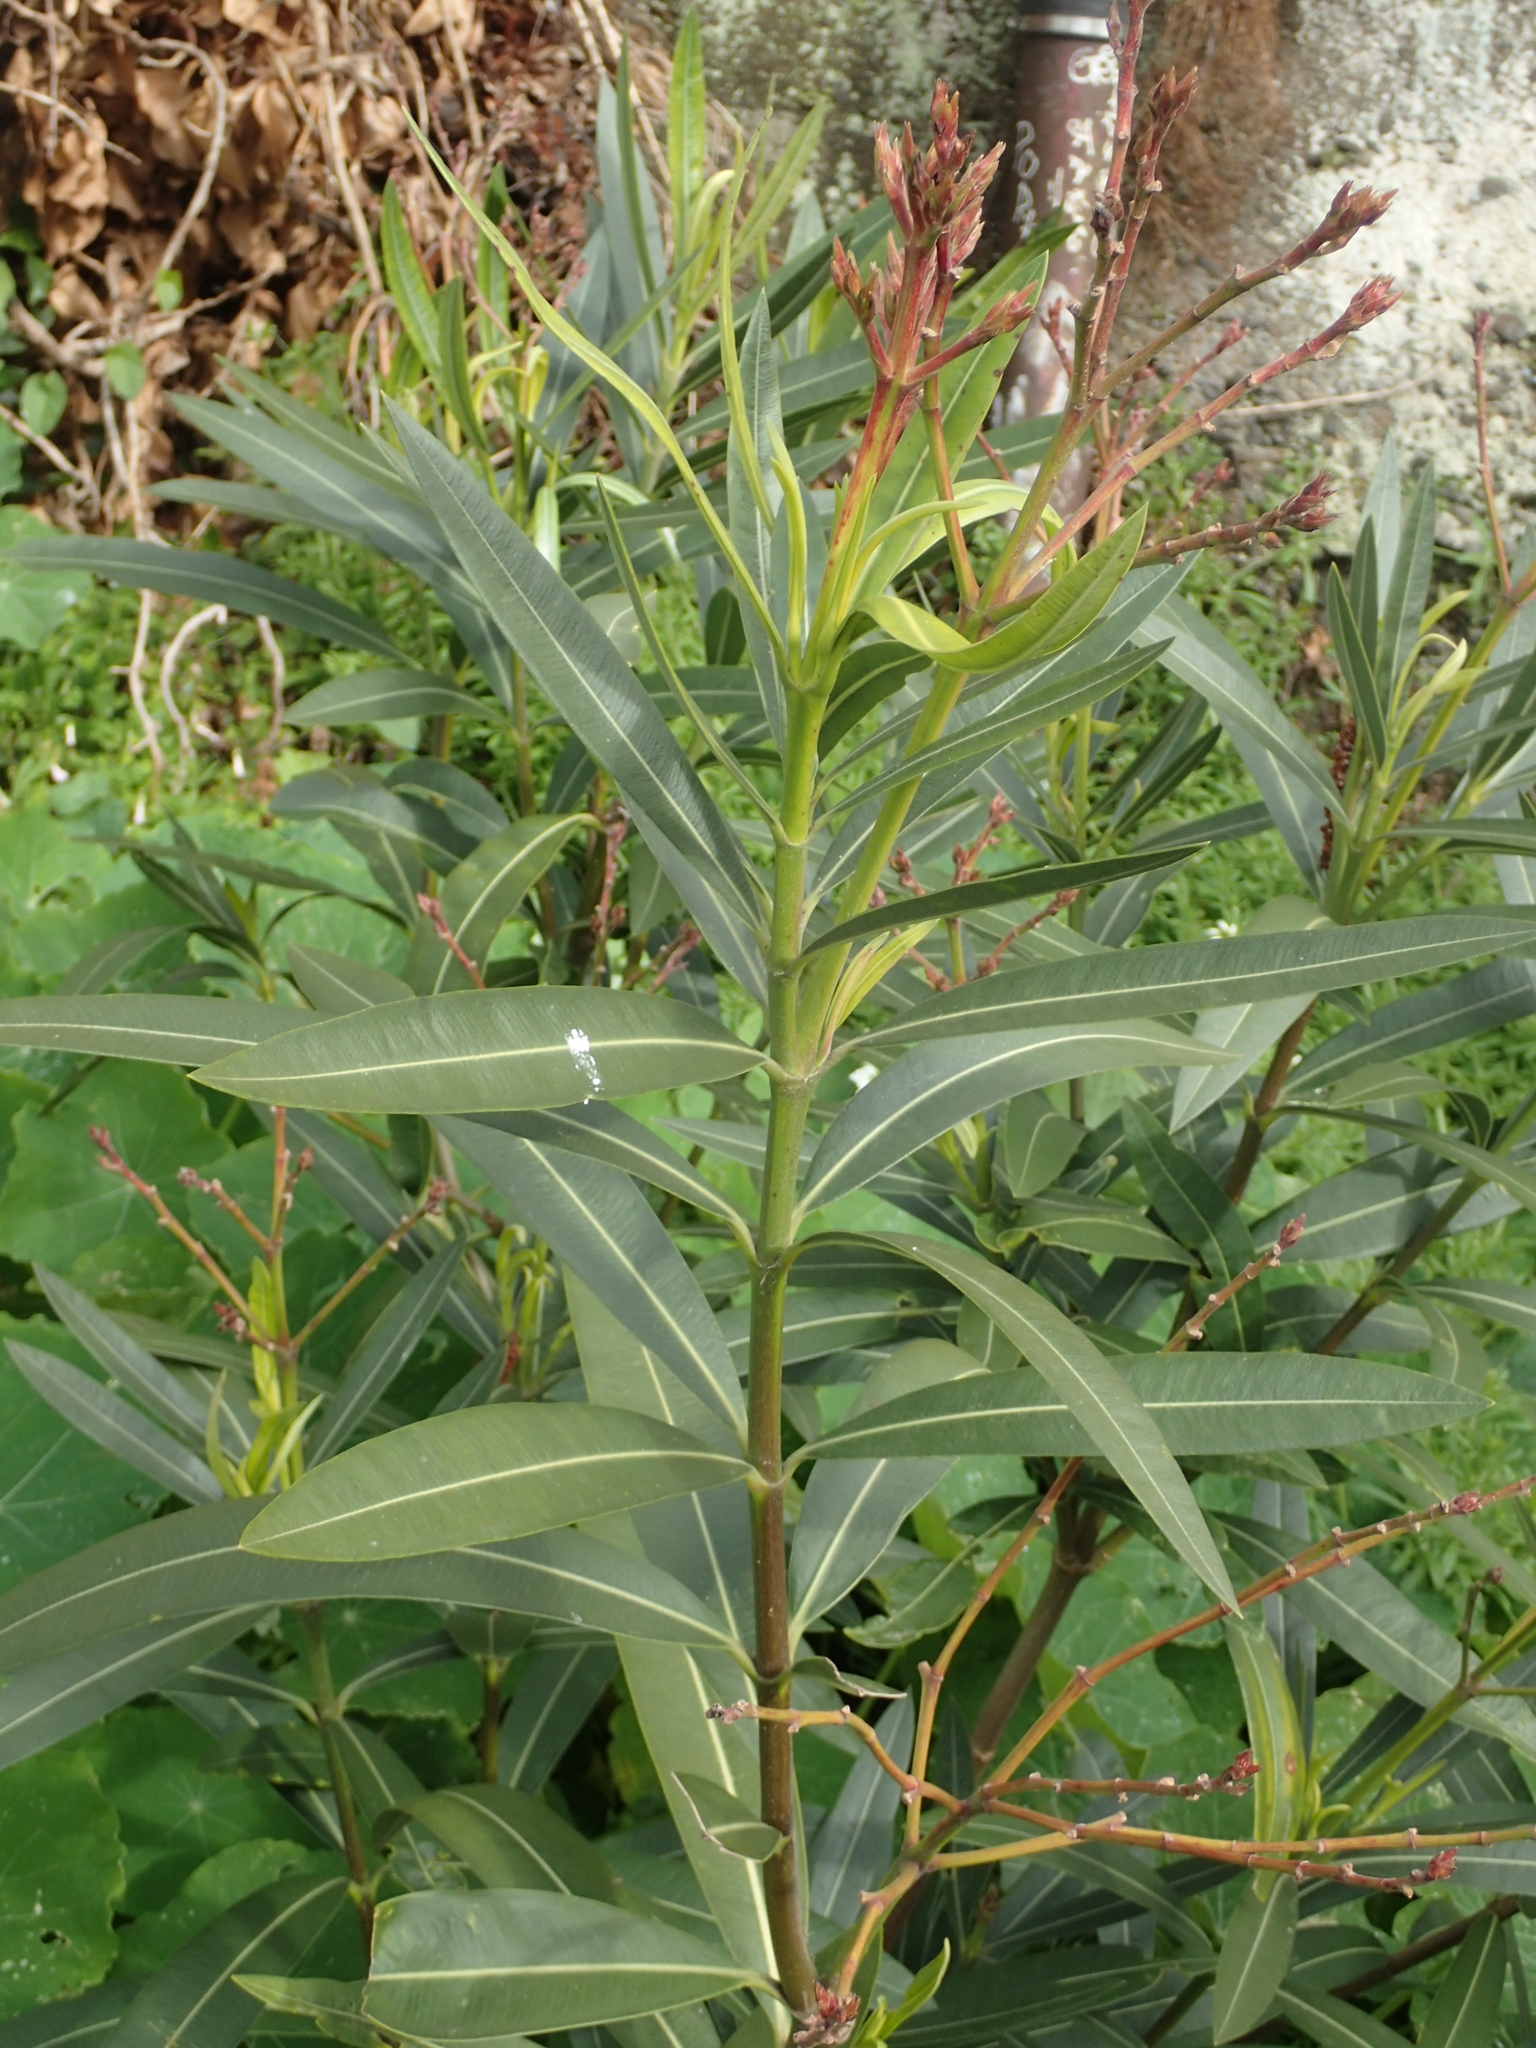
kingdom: Plantae
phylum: Tracheophyta
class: Magnoliopsida
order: Gentianales
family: Apocynaceae
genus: Nerium
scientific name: Nerium oleander
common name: Oleander
